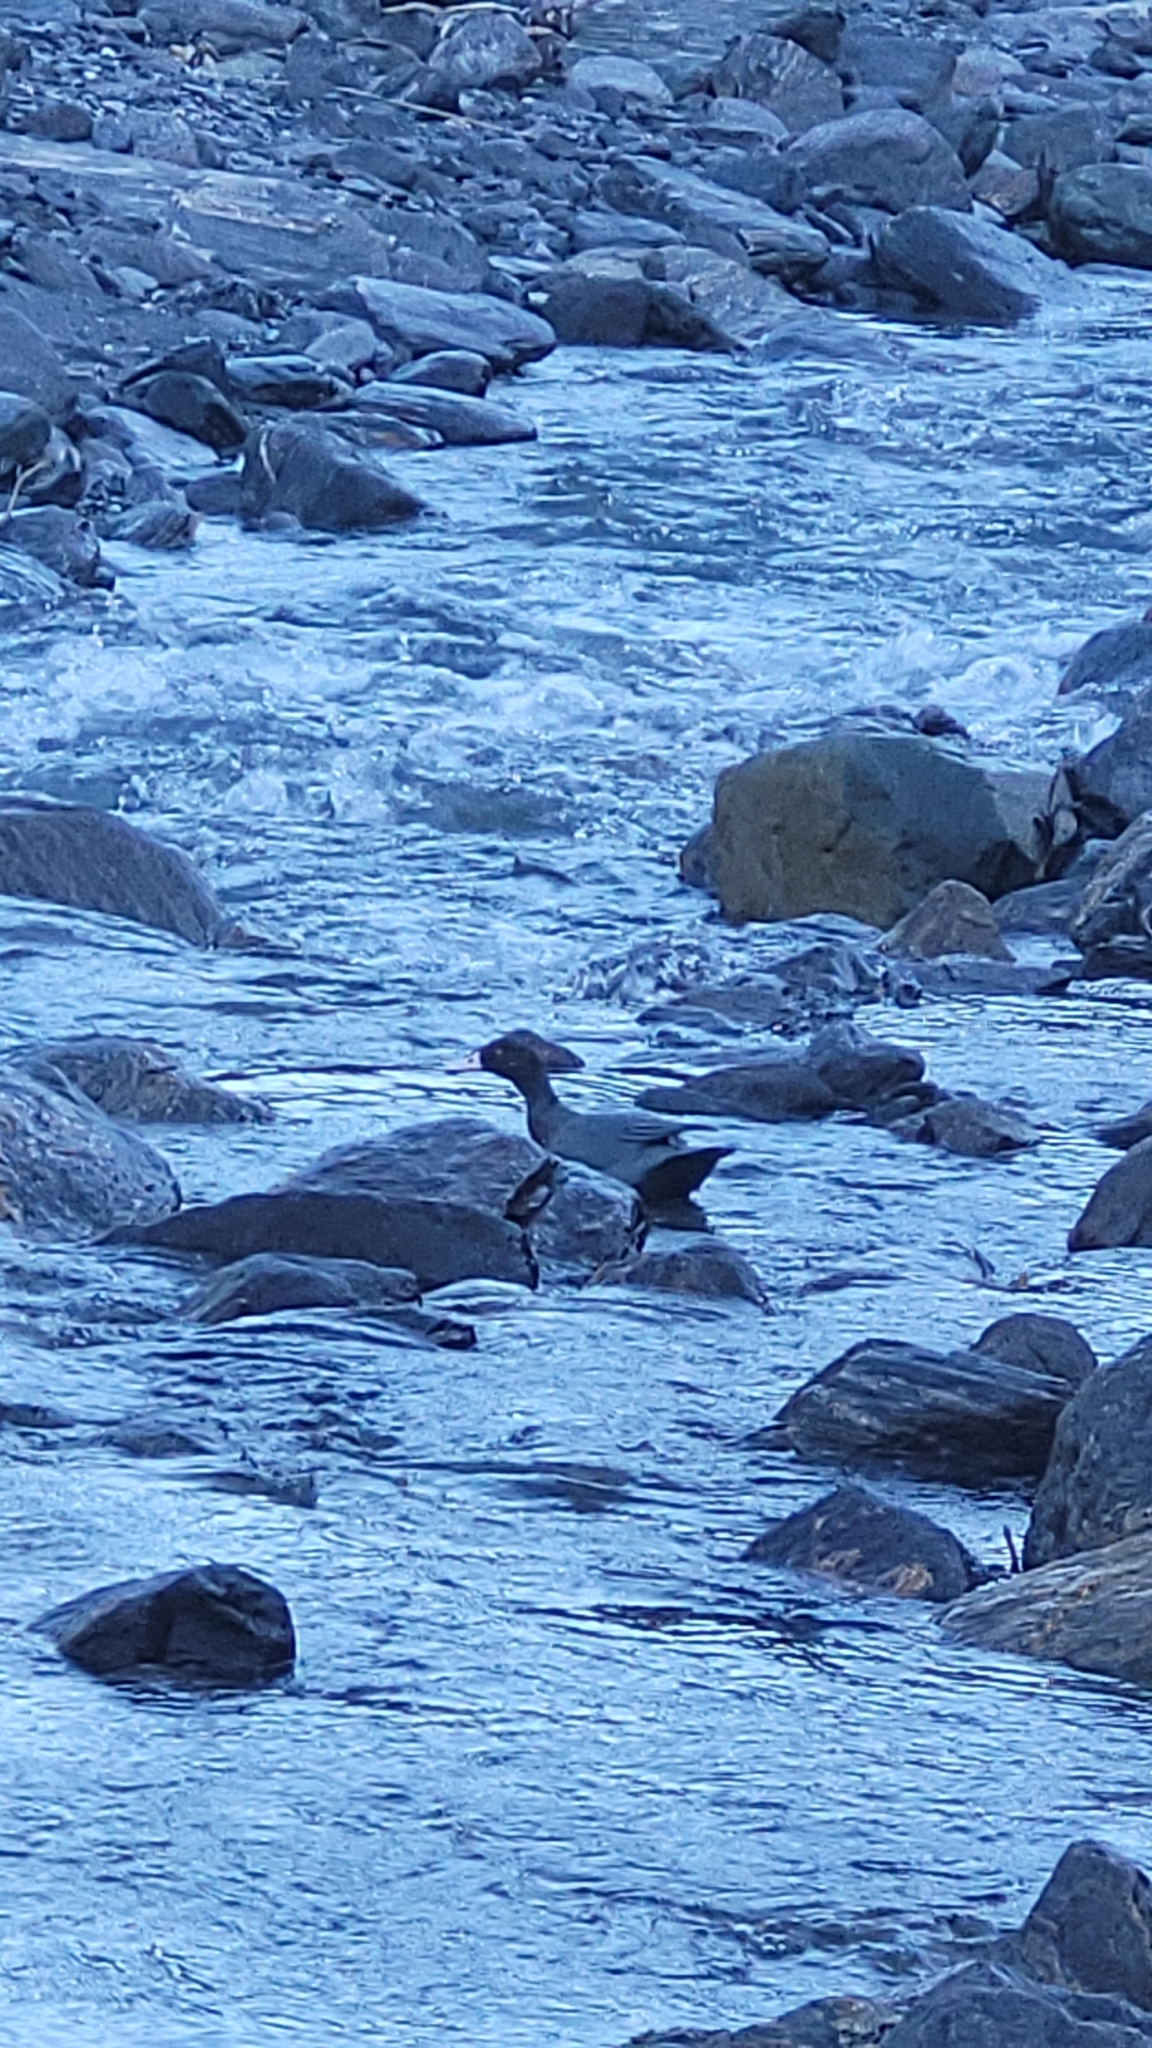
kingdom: Animalia
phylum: Chordata
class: Aves
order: Anseriformes
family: Anatidae
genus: Hymenolaimus
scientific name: Hymenolaimus malacorhynchos
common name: Blue duck
